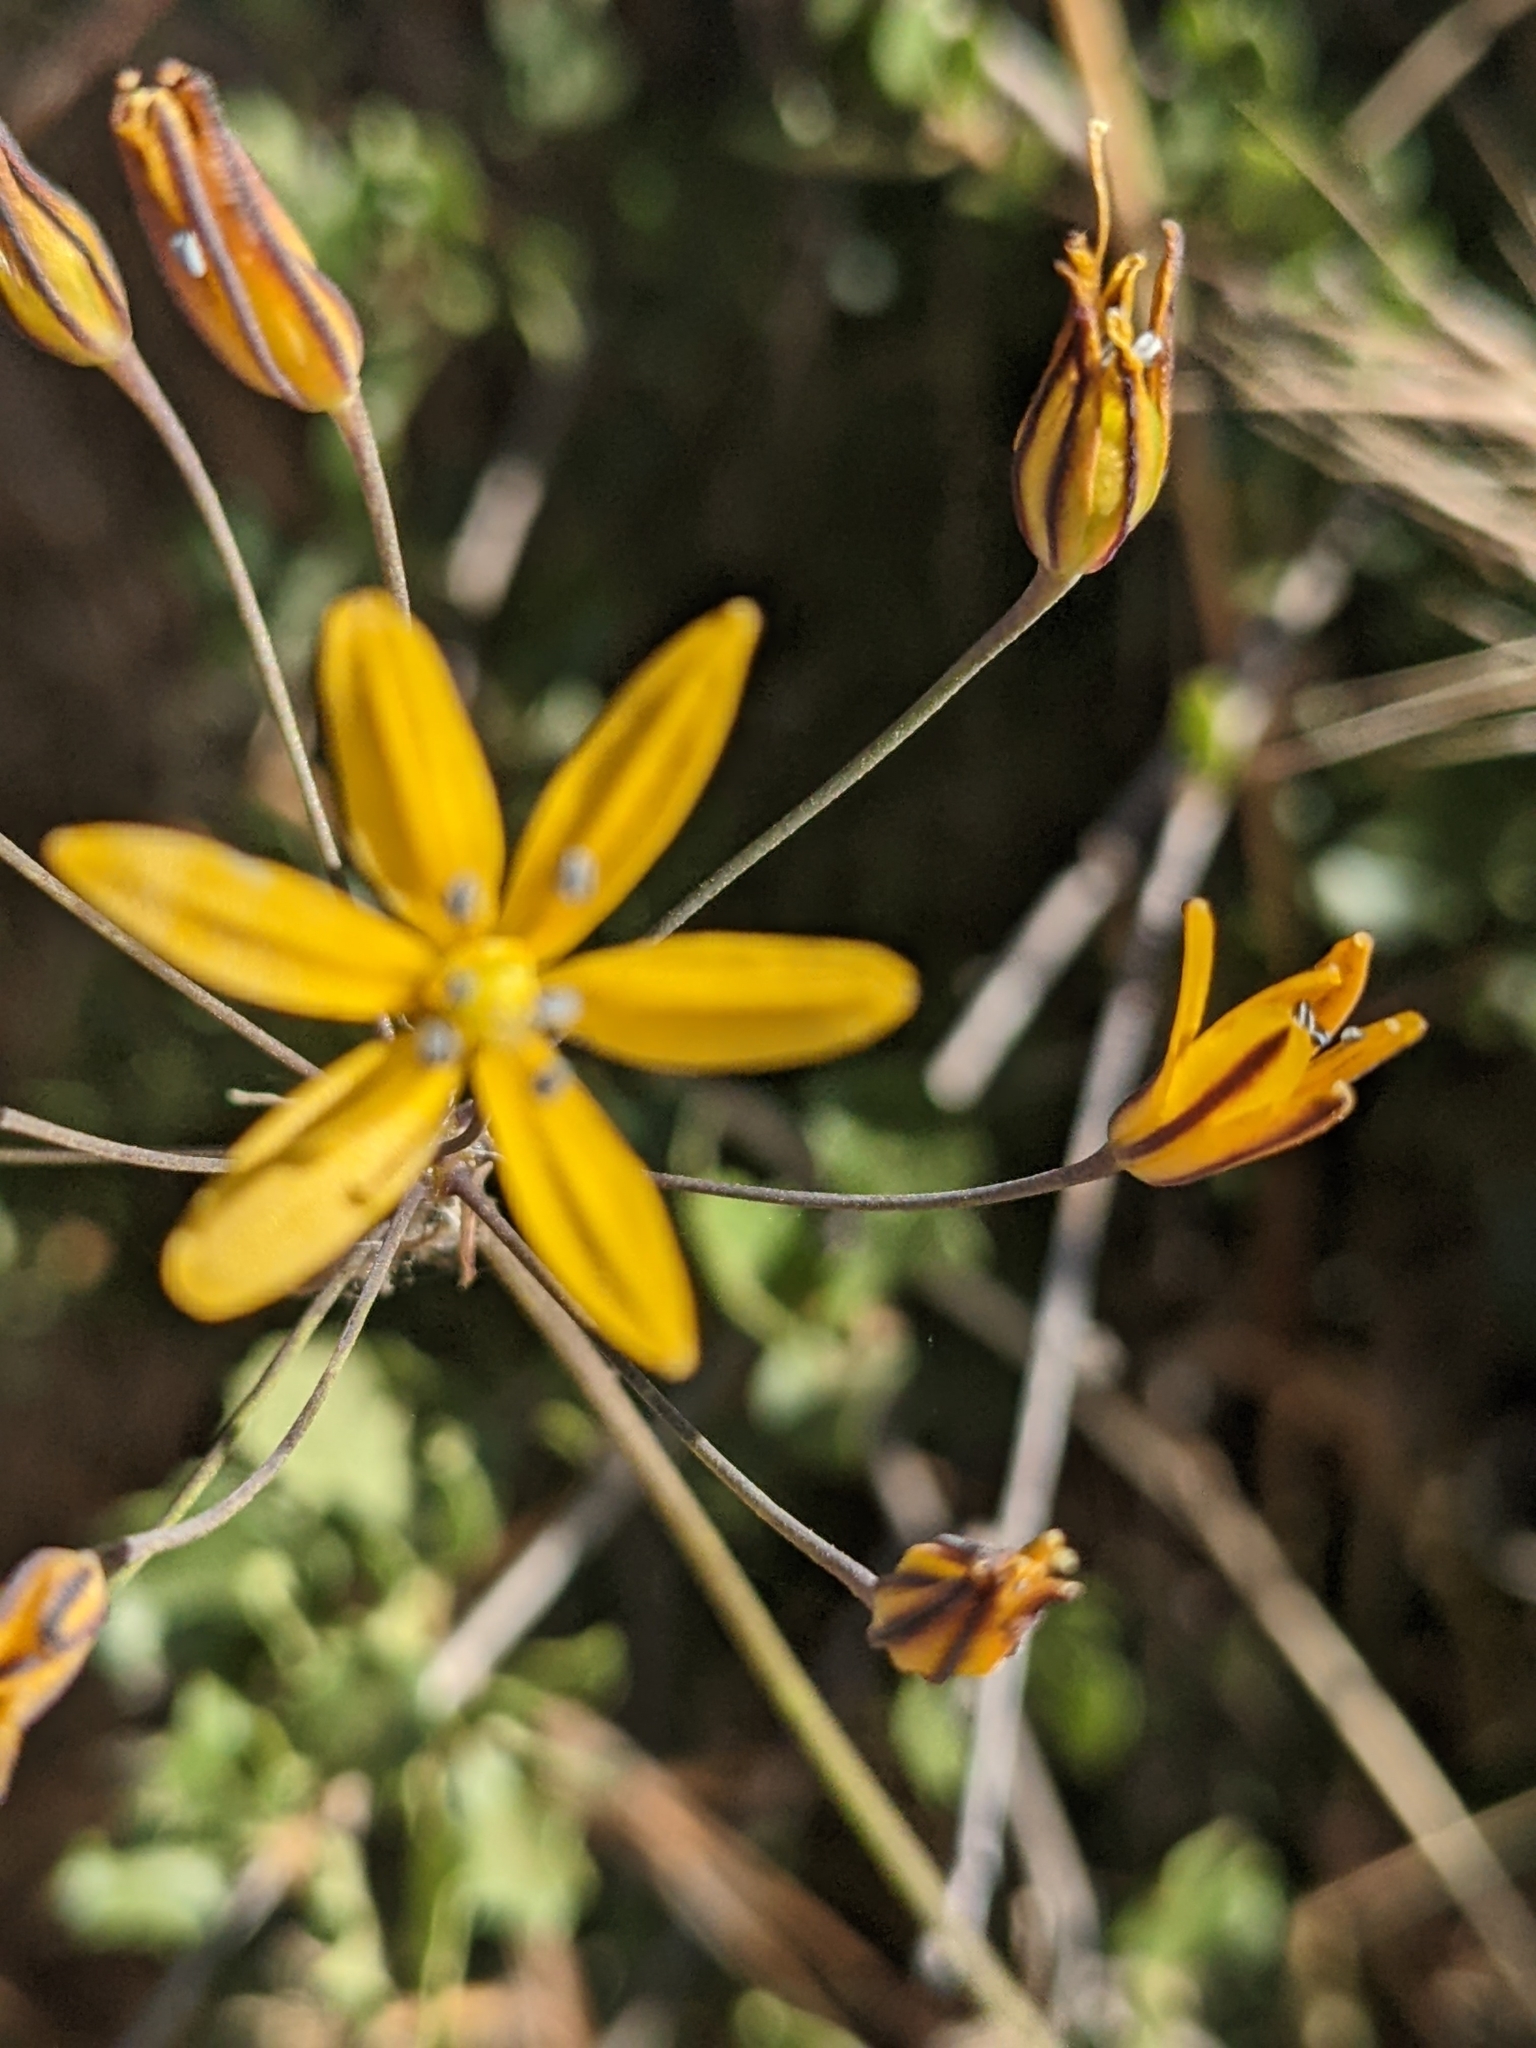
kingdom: Plantae
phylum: Tracheophyta
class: Liliopsida
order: Asparagales
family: Asparagaceae
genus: Bloomeria
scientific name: Bloomeria crocea
